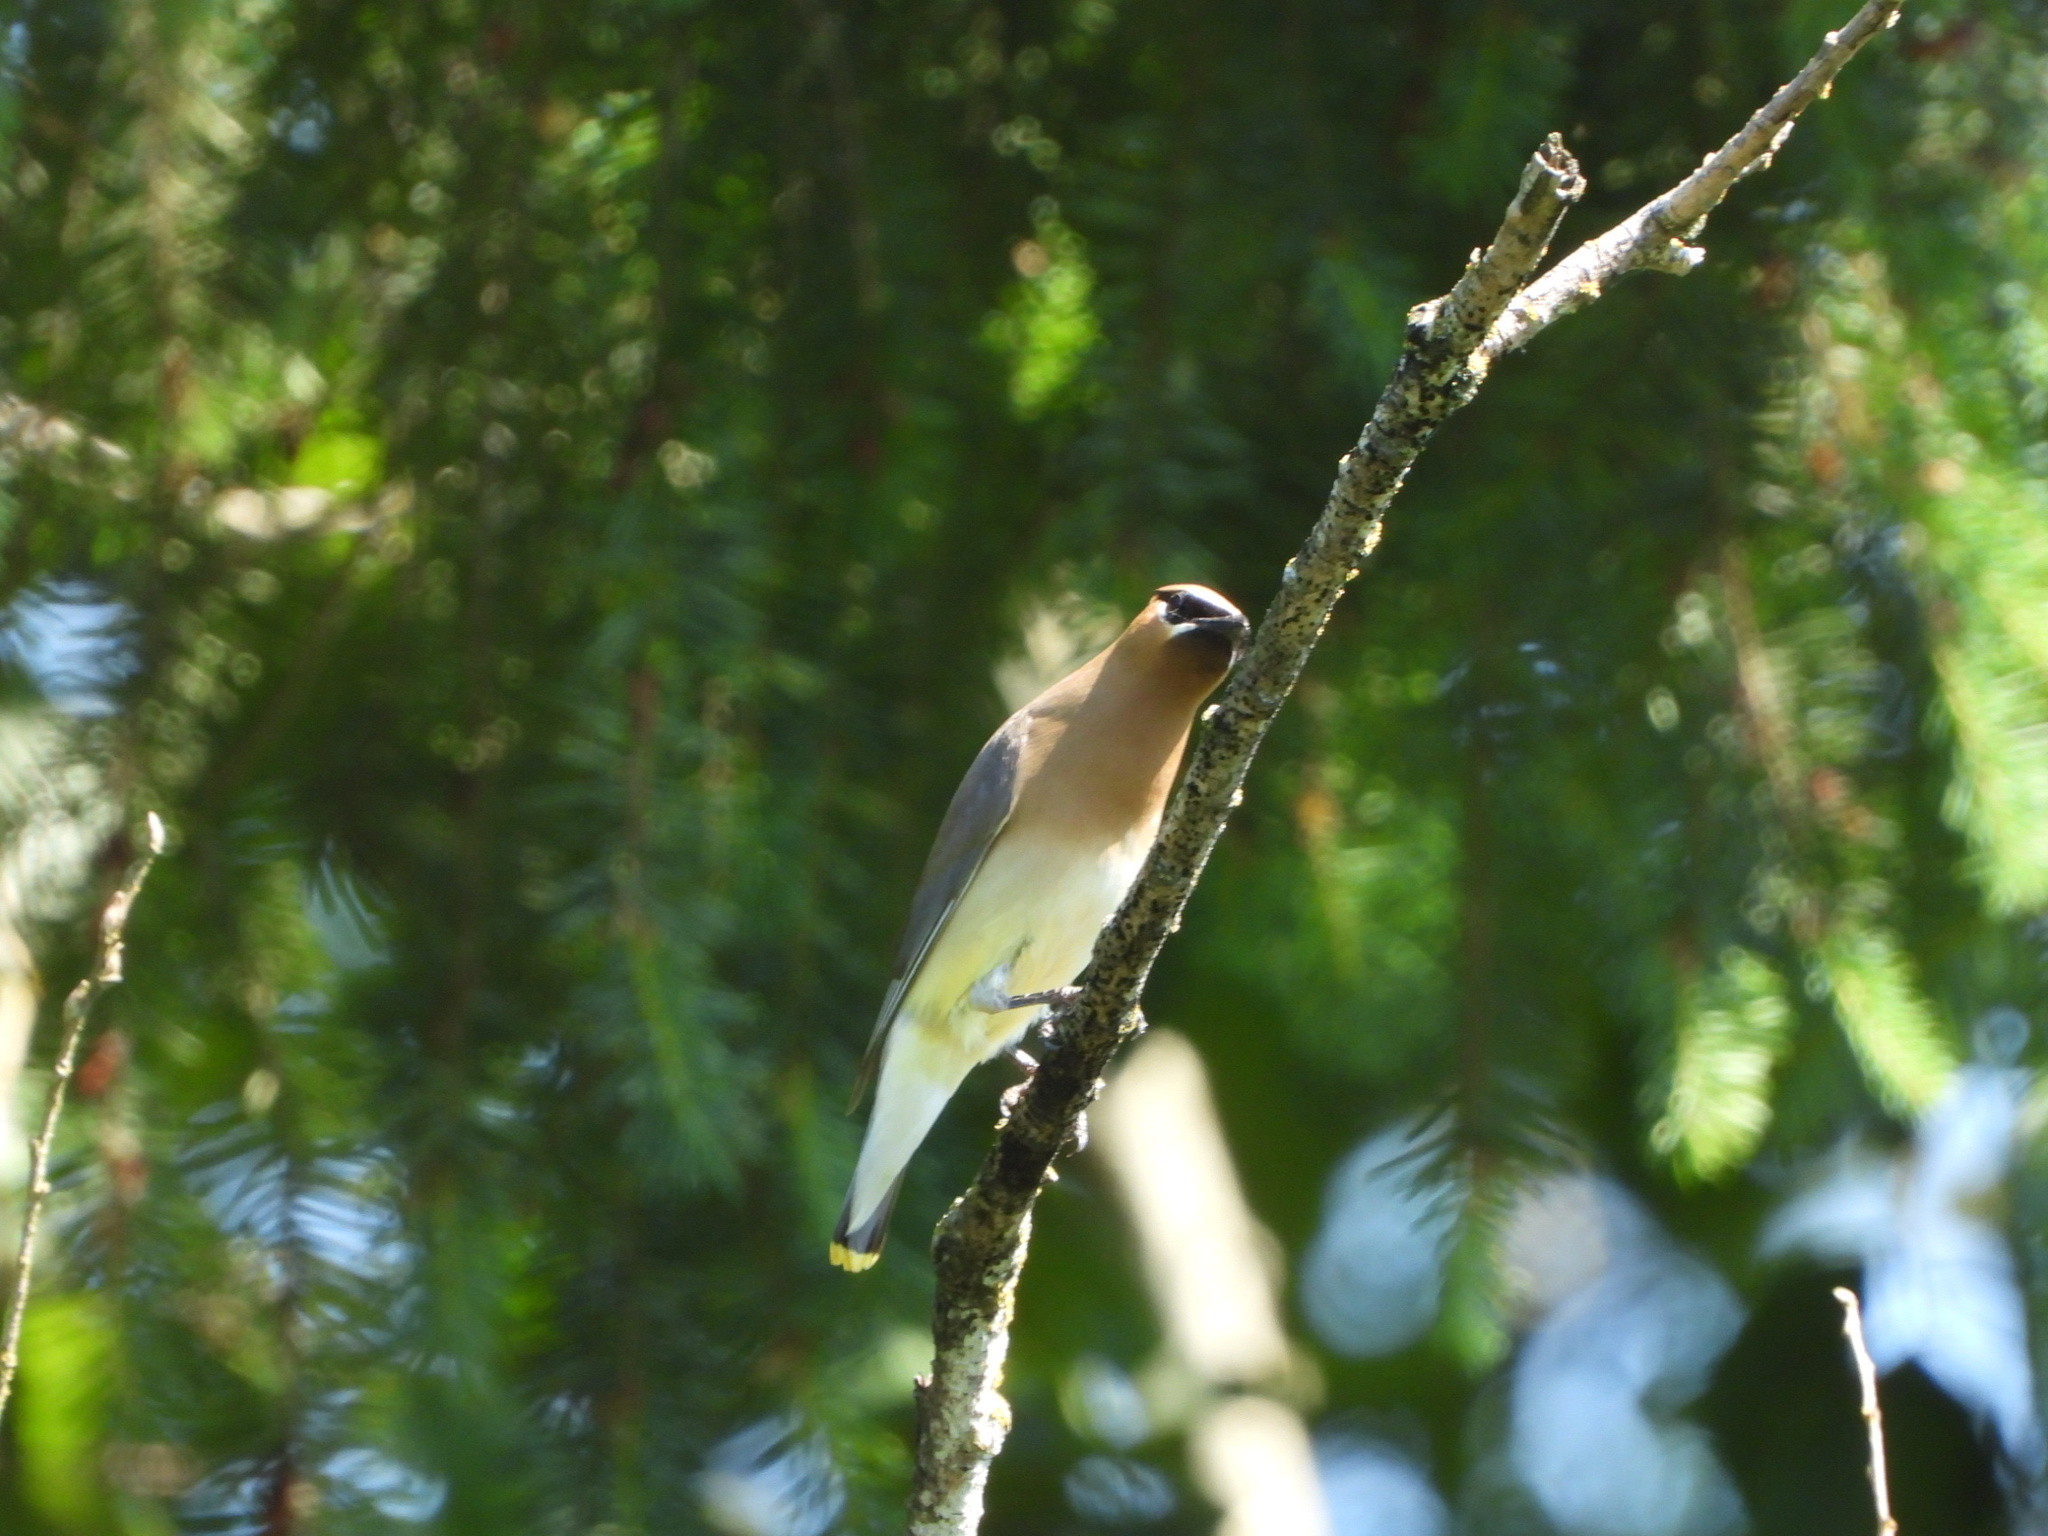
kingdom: Animalia
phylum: Chordata
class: Aves
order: Passeriformes
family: Bombycillidae
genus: Bombycilla
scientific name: Bombycilla cedrorum
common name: Cedar waxwing
